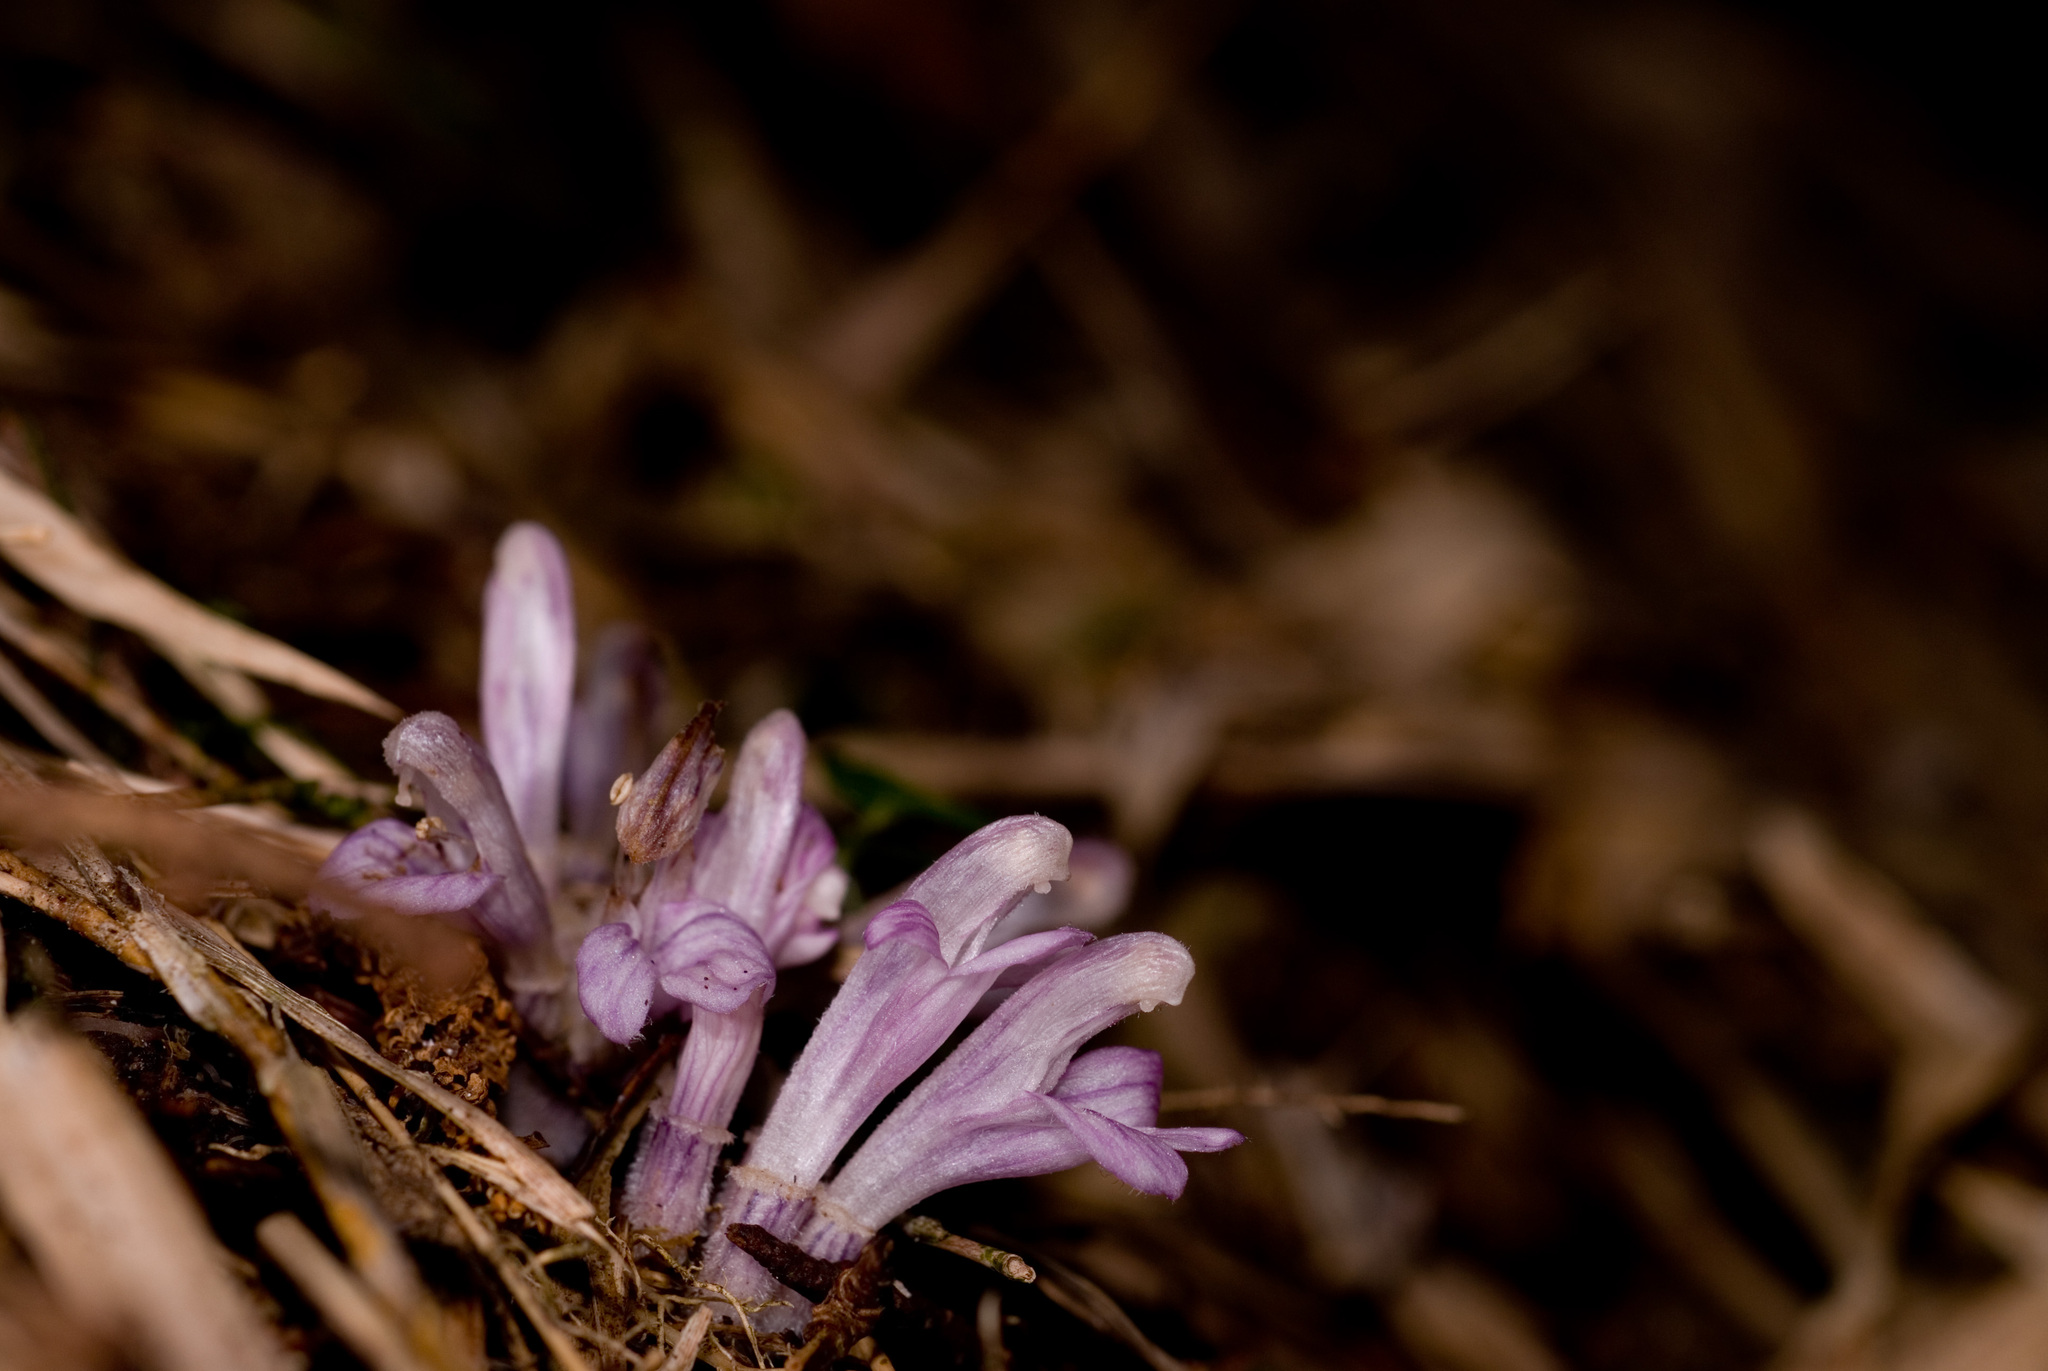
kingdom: Plantae
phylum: Tracheophyta
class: Magnoliopsida
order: Lamiales
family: Orobanchaceae
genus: Lathraea
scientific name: Lathraea purpurea
